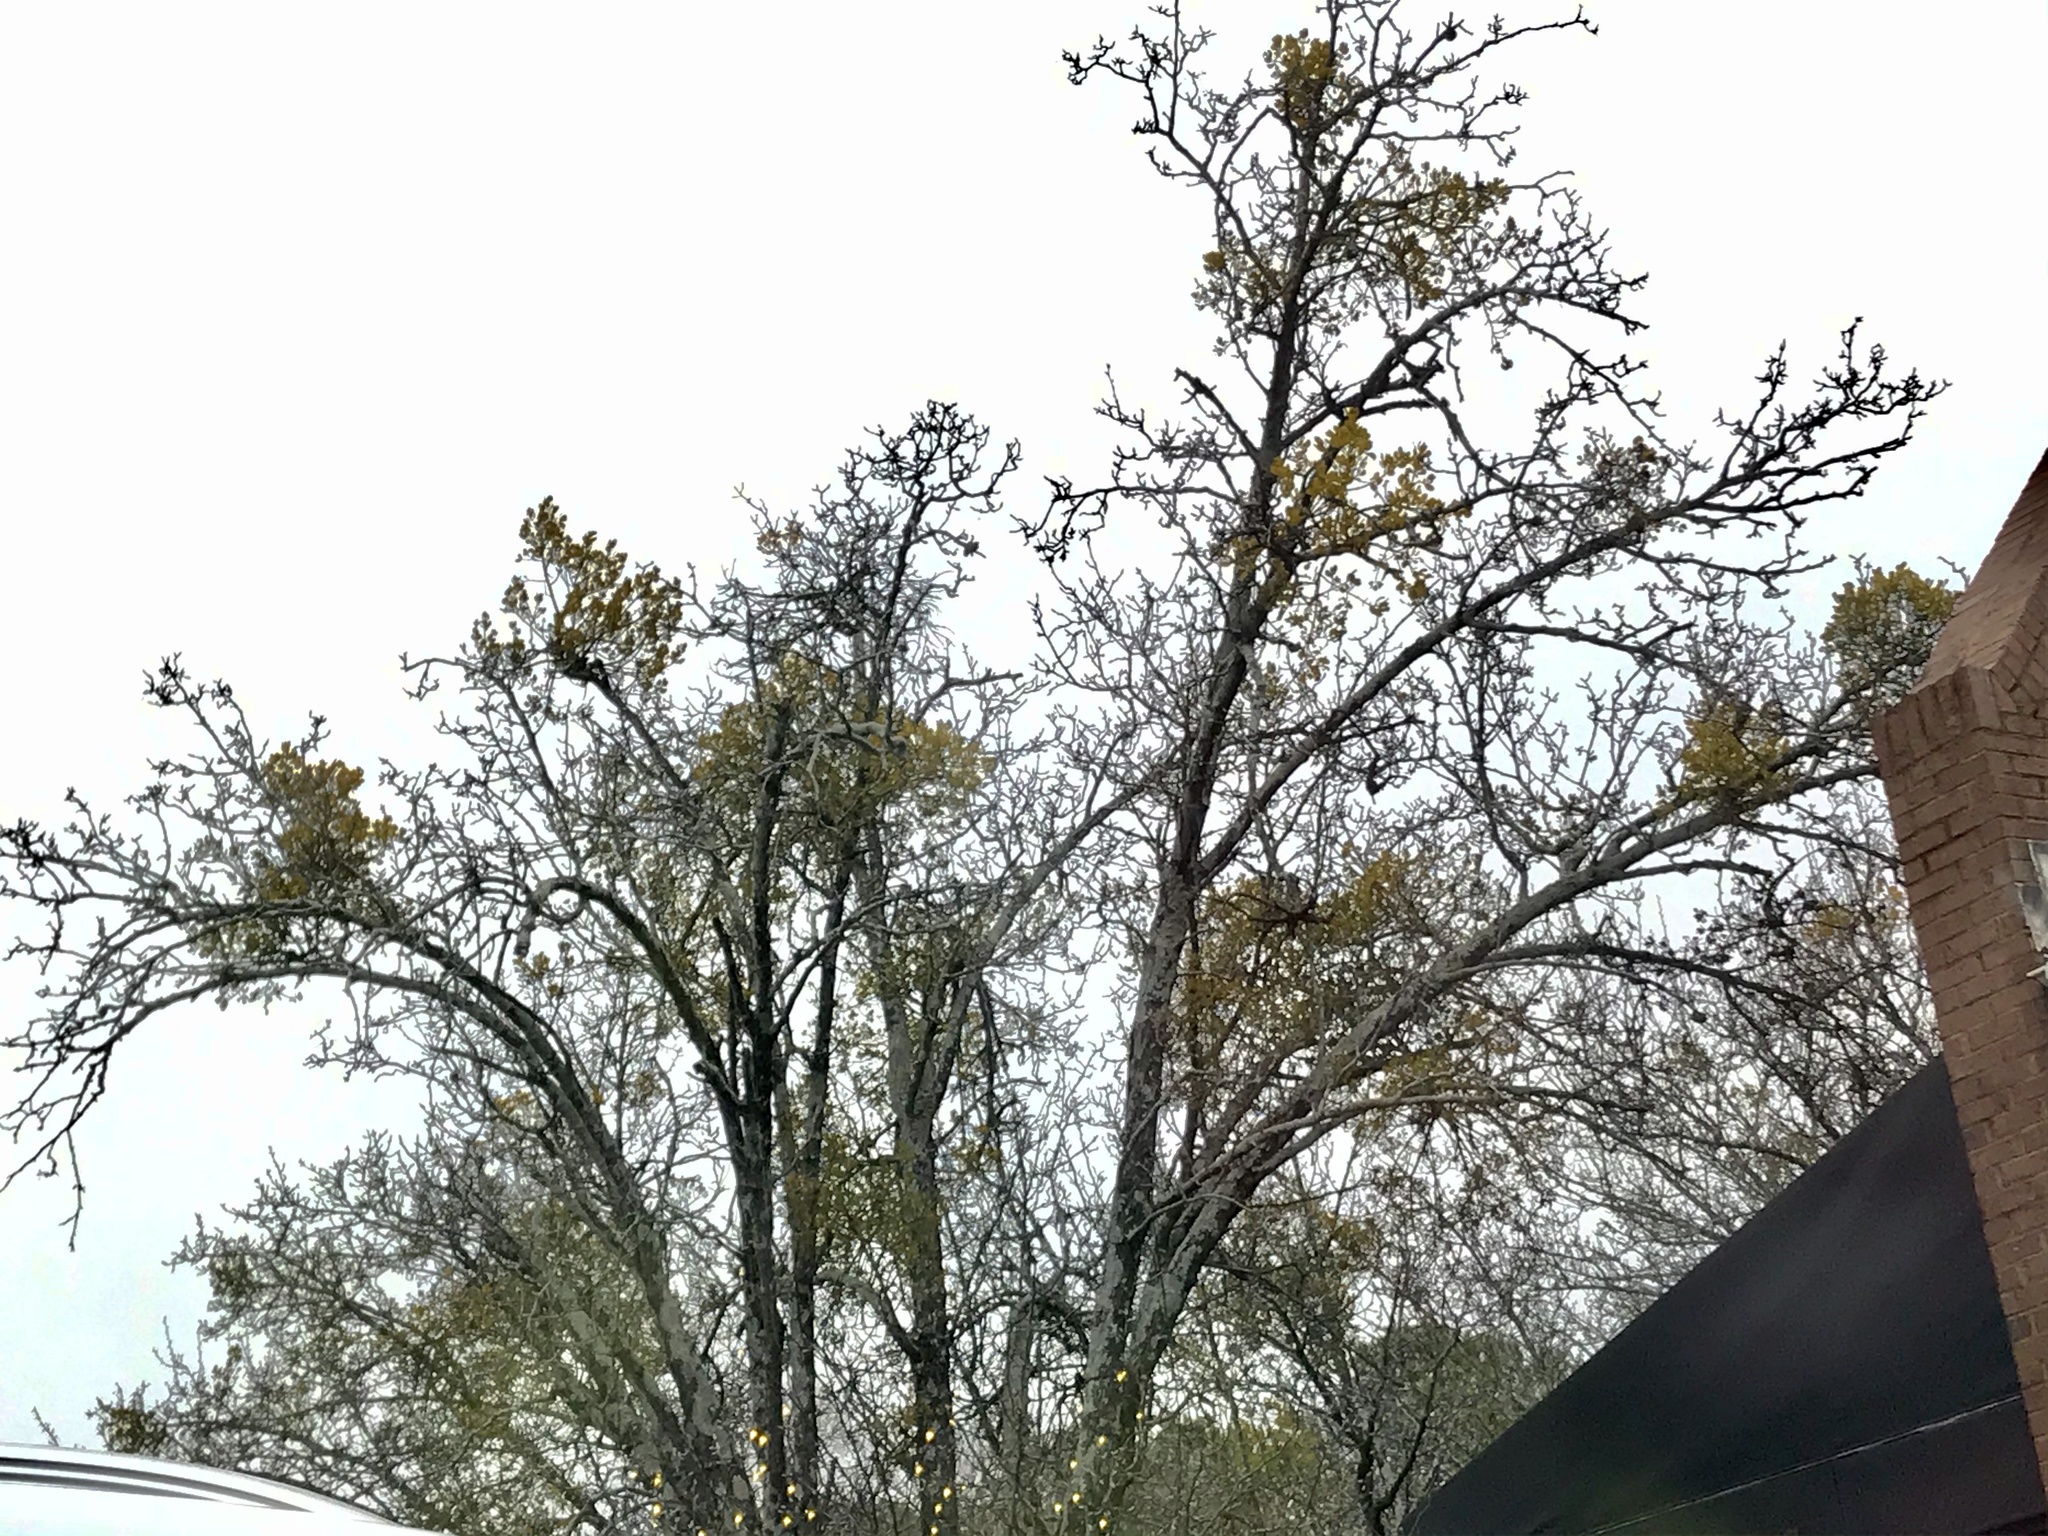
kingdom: Plantae
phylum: Tracheophyta
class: Magnoliopsida
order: Santalales
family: Viscaceae
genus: Phoradendron
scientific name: Phoradendron leucarpum
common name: Pacific mistletoe
